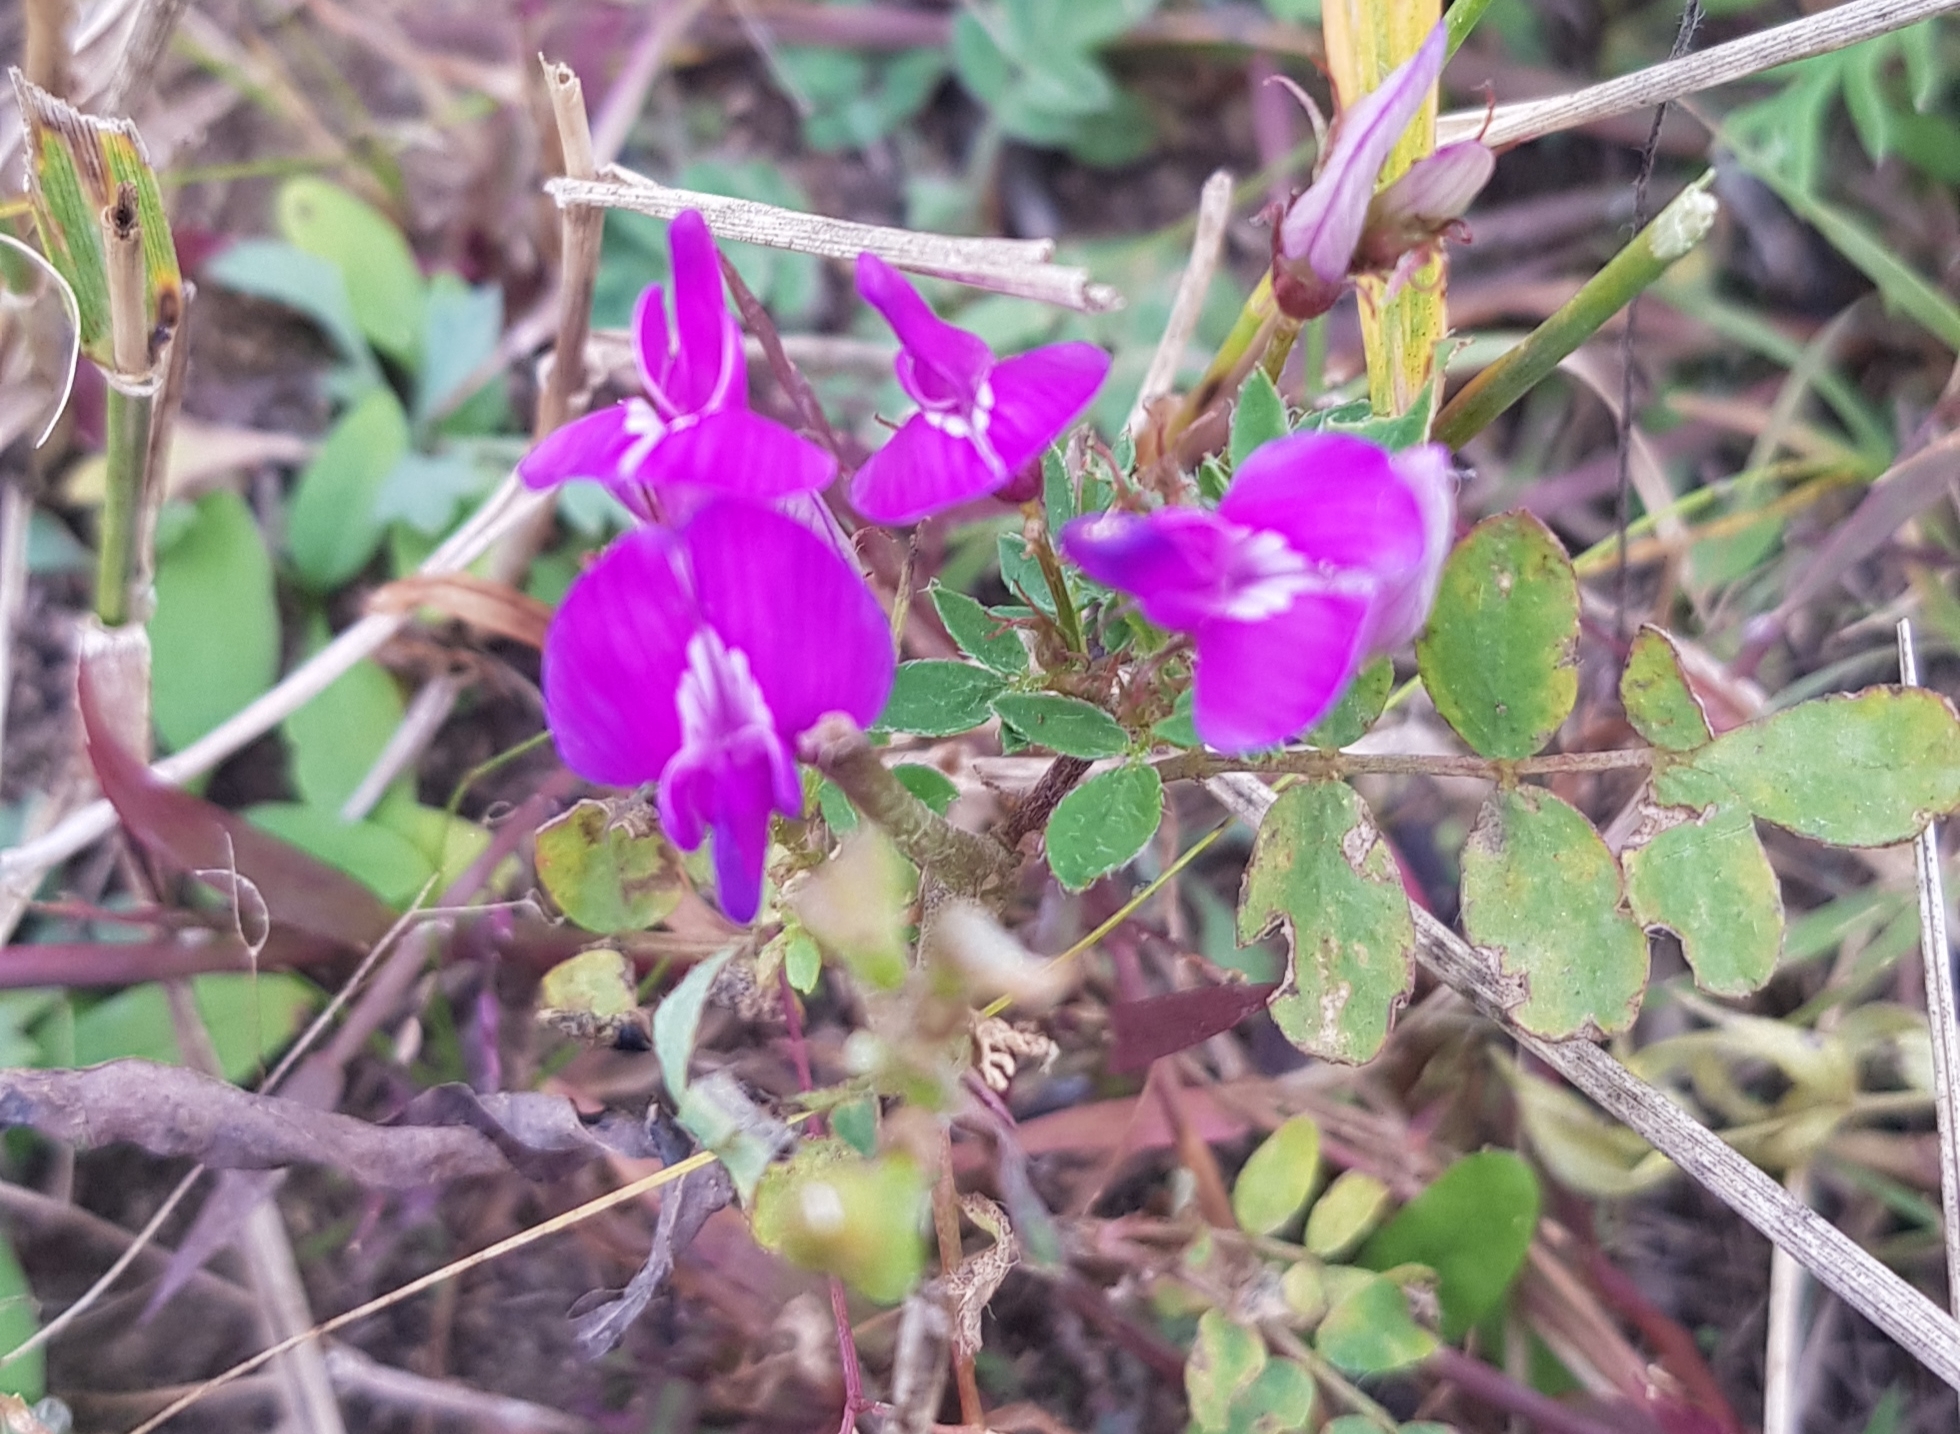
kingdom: Plantae
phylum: Tracheophyta
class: Magnoliopsida
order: Fabales
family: Fabaceae
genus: Astragalus
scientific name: Astragalus davuricus
